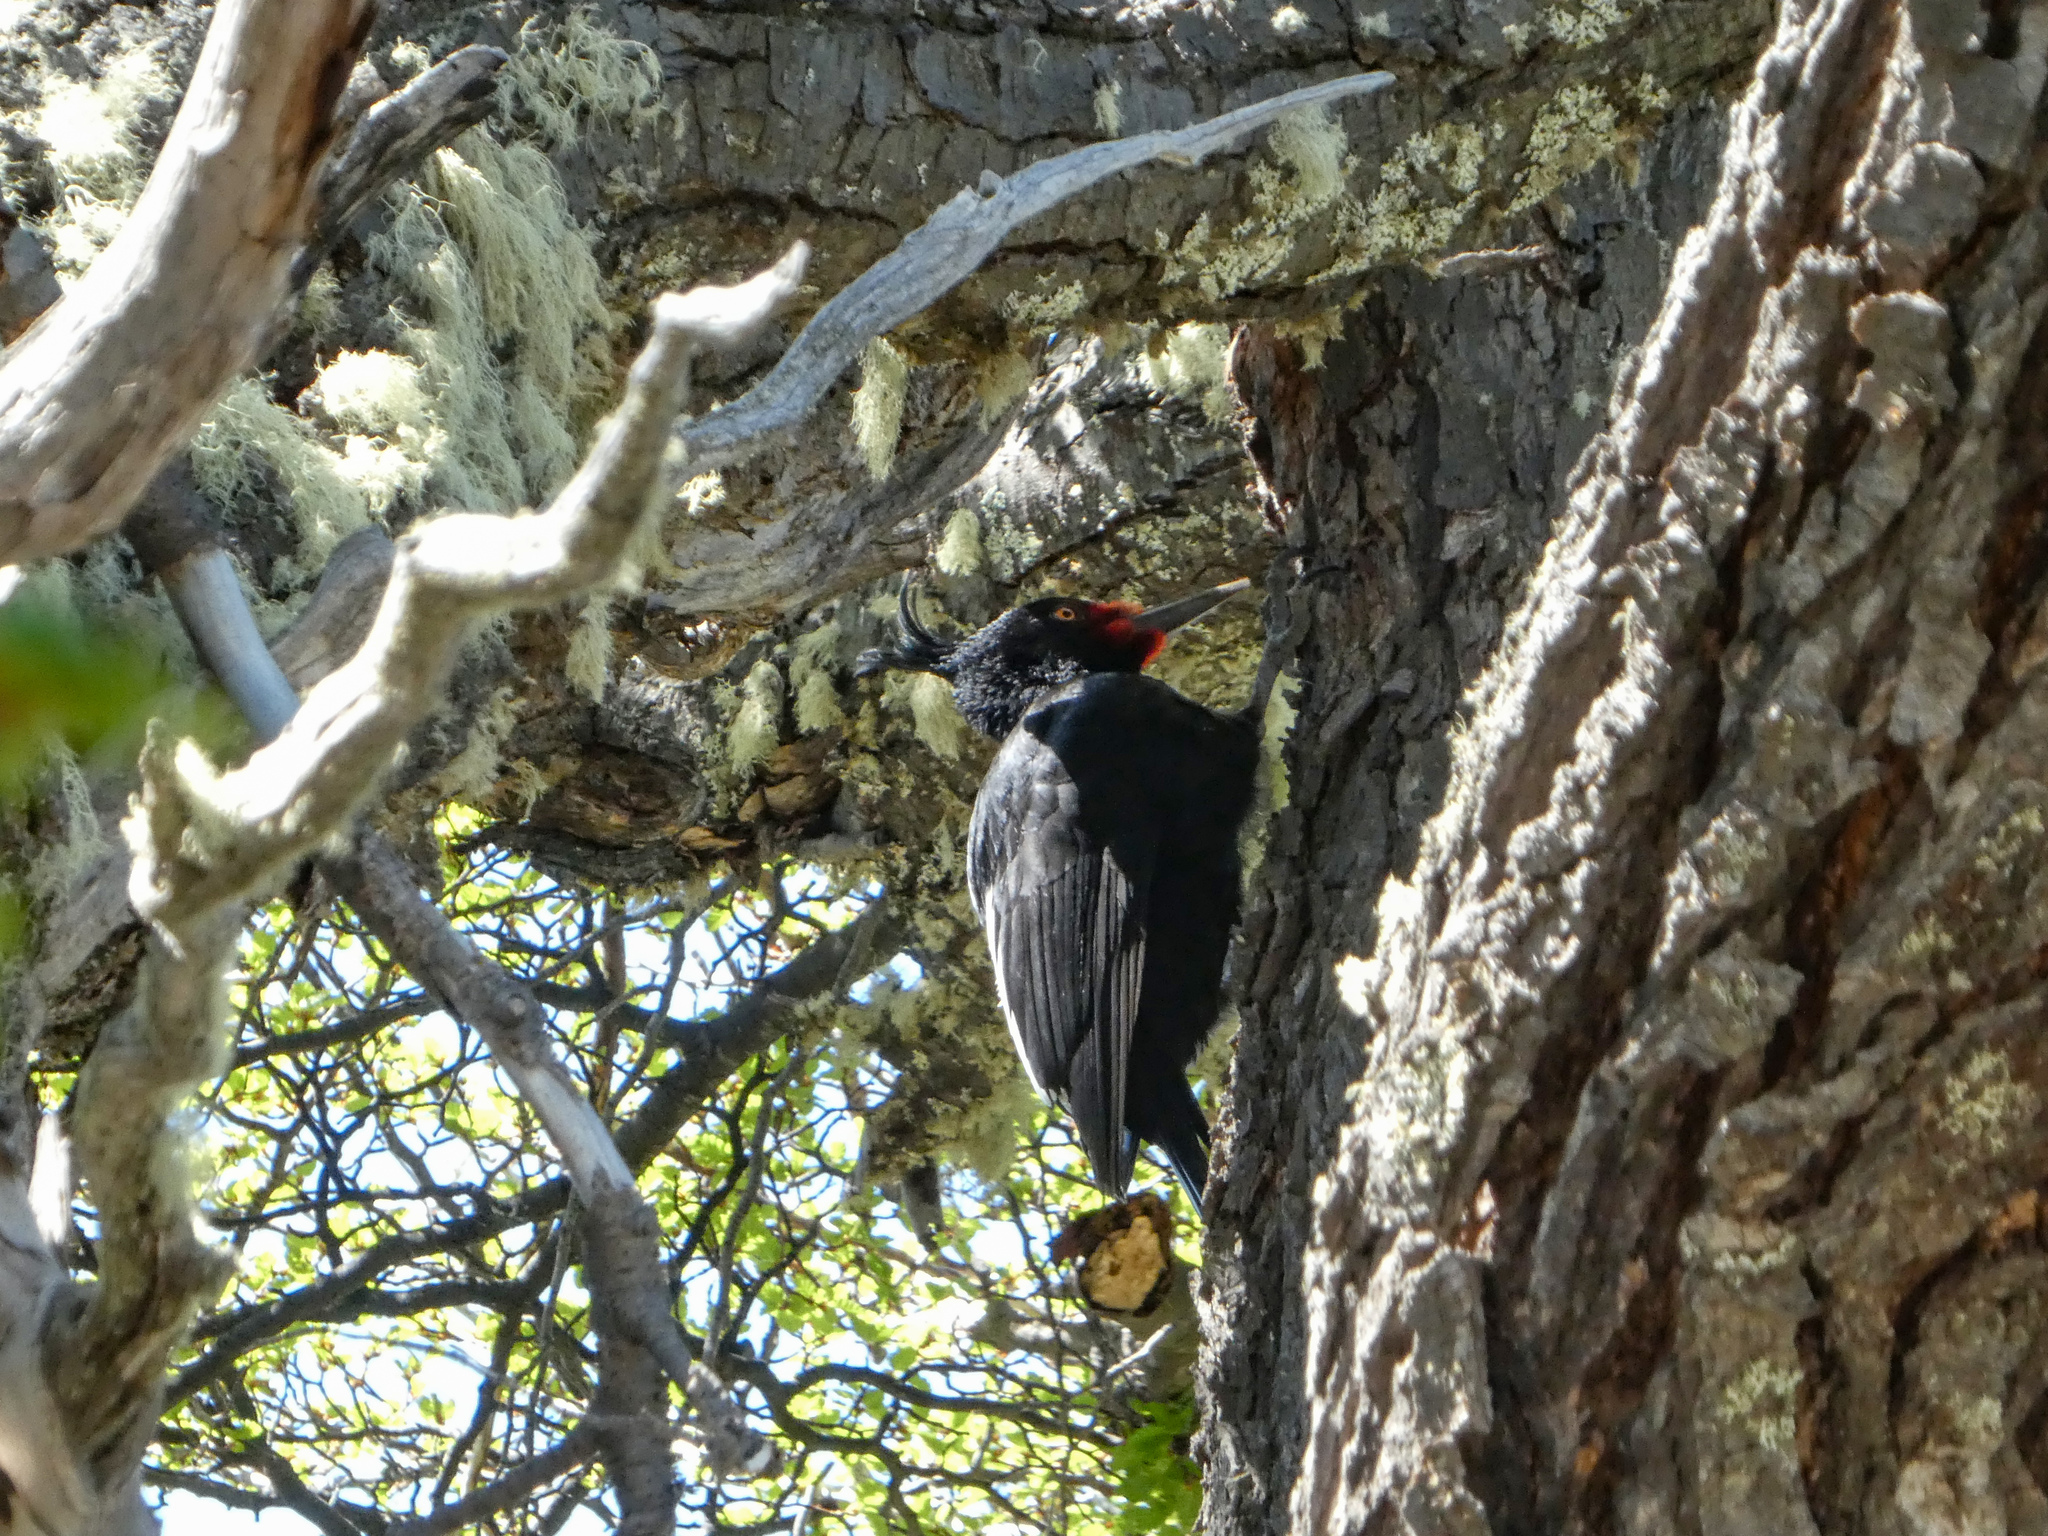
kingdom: Animalia
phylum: Chordata
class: Aves
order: Piciformes
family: Picidae
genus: Campephilus
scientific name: Campephilus magellanicus
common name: Magellanic woodpecker
